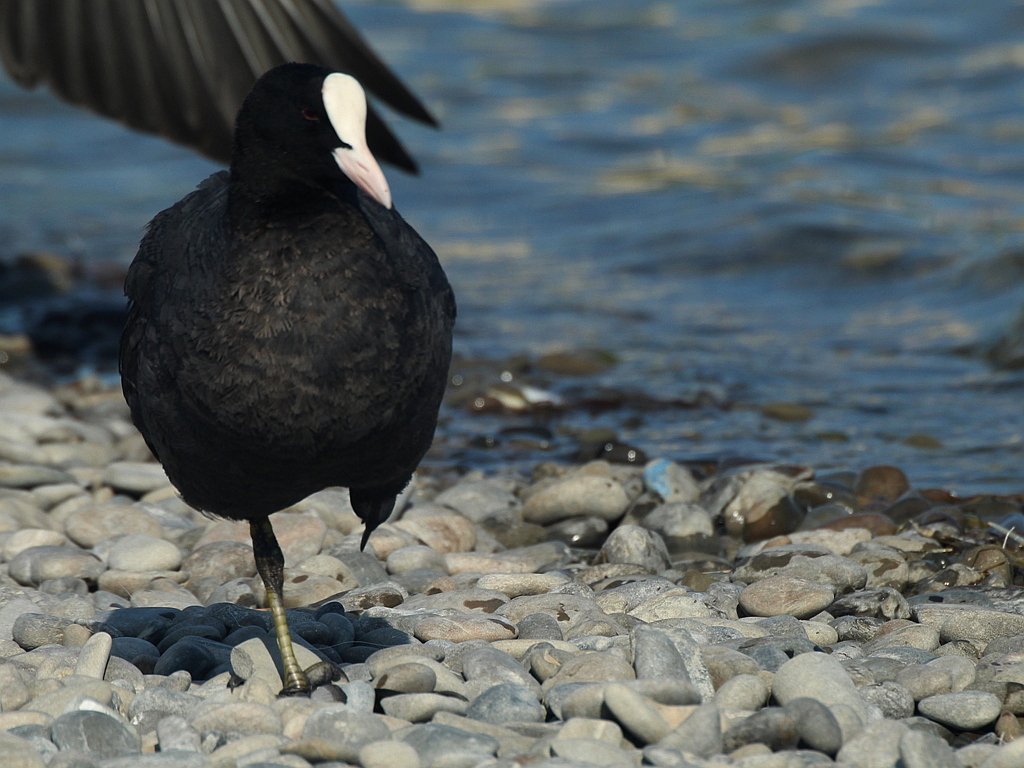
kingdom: Animalia
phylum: Chordata
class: Aves
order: Gruiformes
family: Rallidae
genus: Fulica
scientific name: Fulica atra
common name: Eurasian coot
